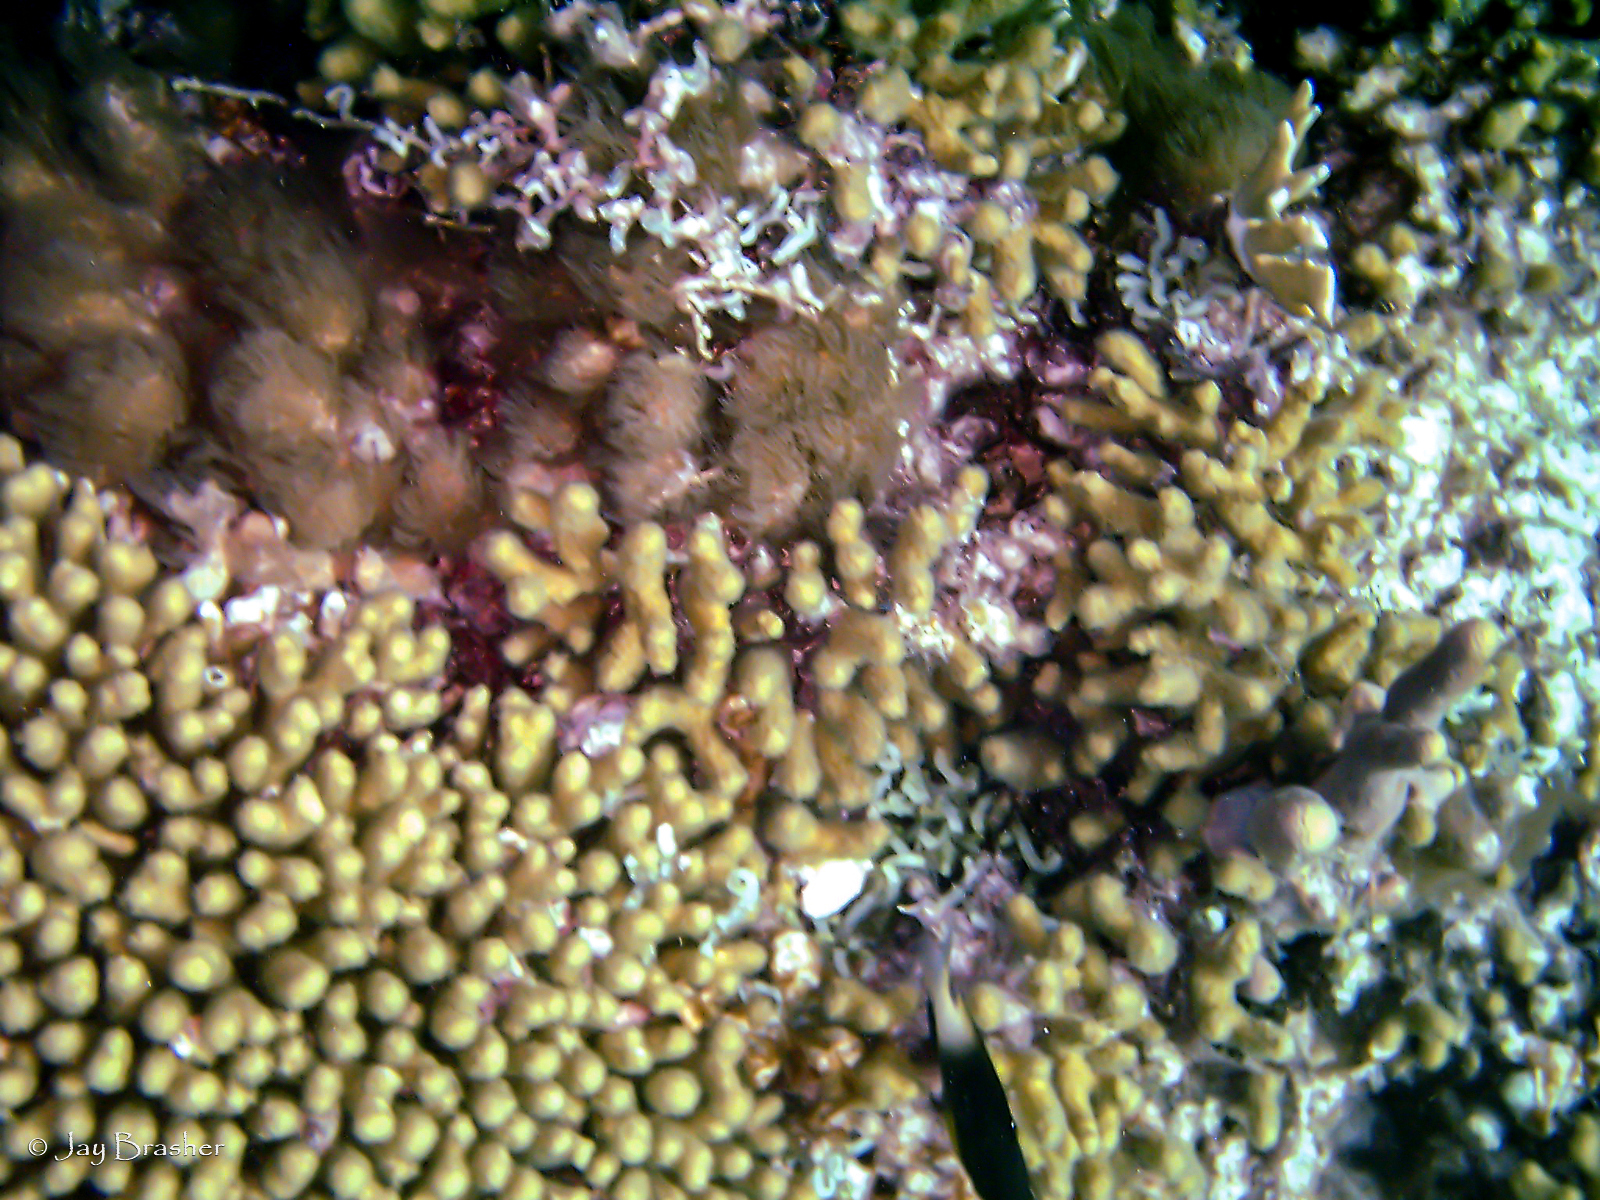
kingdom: Animalia
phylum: Cnidaria
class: Anthozoa
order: Scleractinia
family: Pocilloporidae
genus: Madracis
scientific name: Madracis auretenra
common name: Yellow pencil coral
